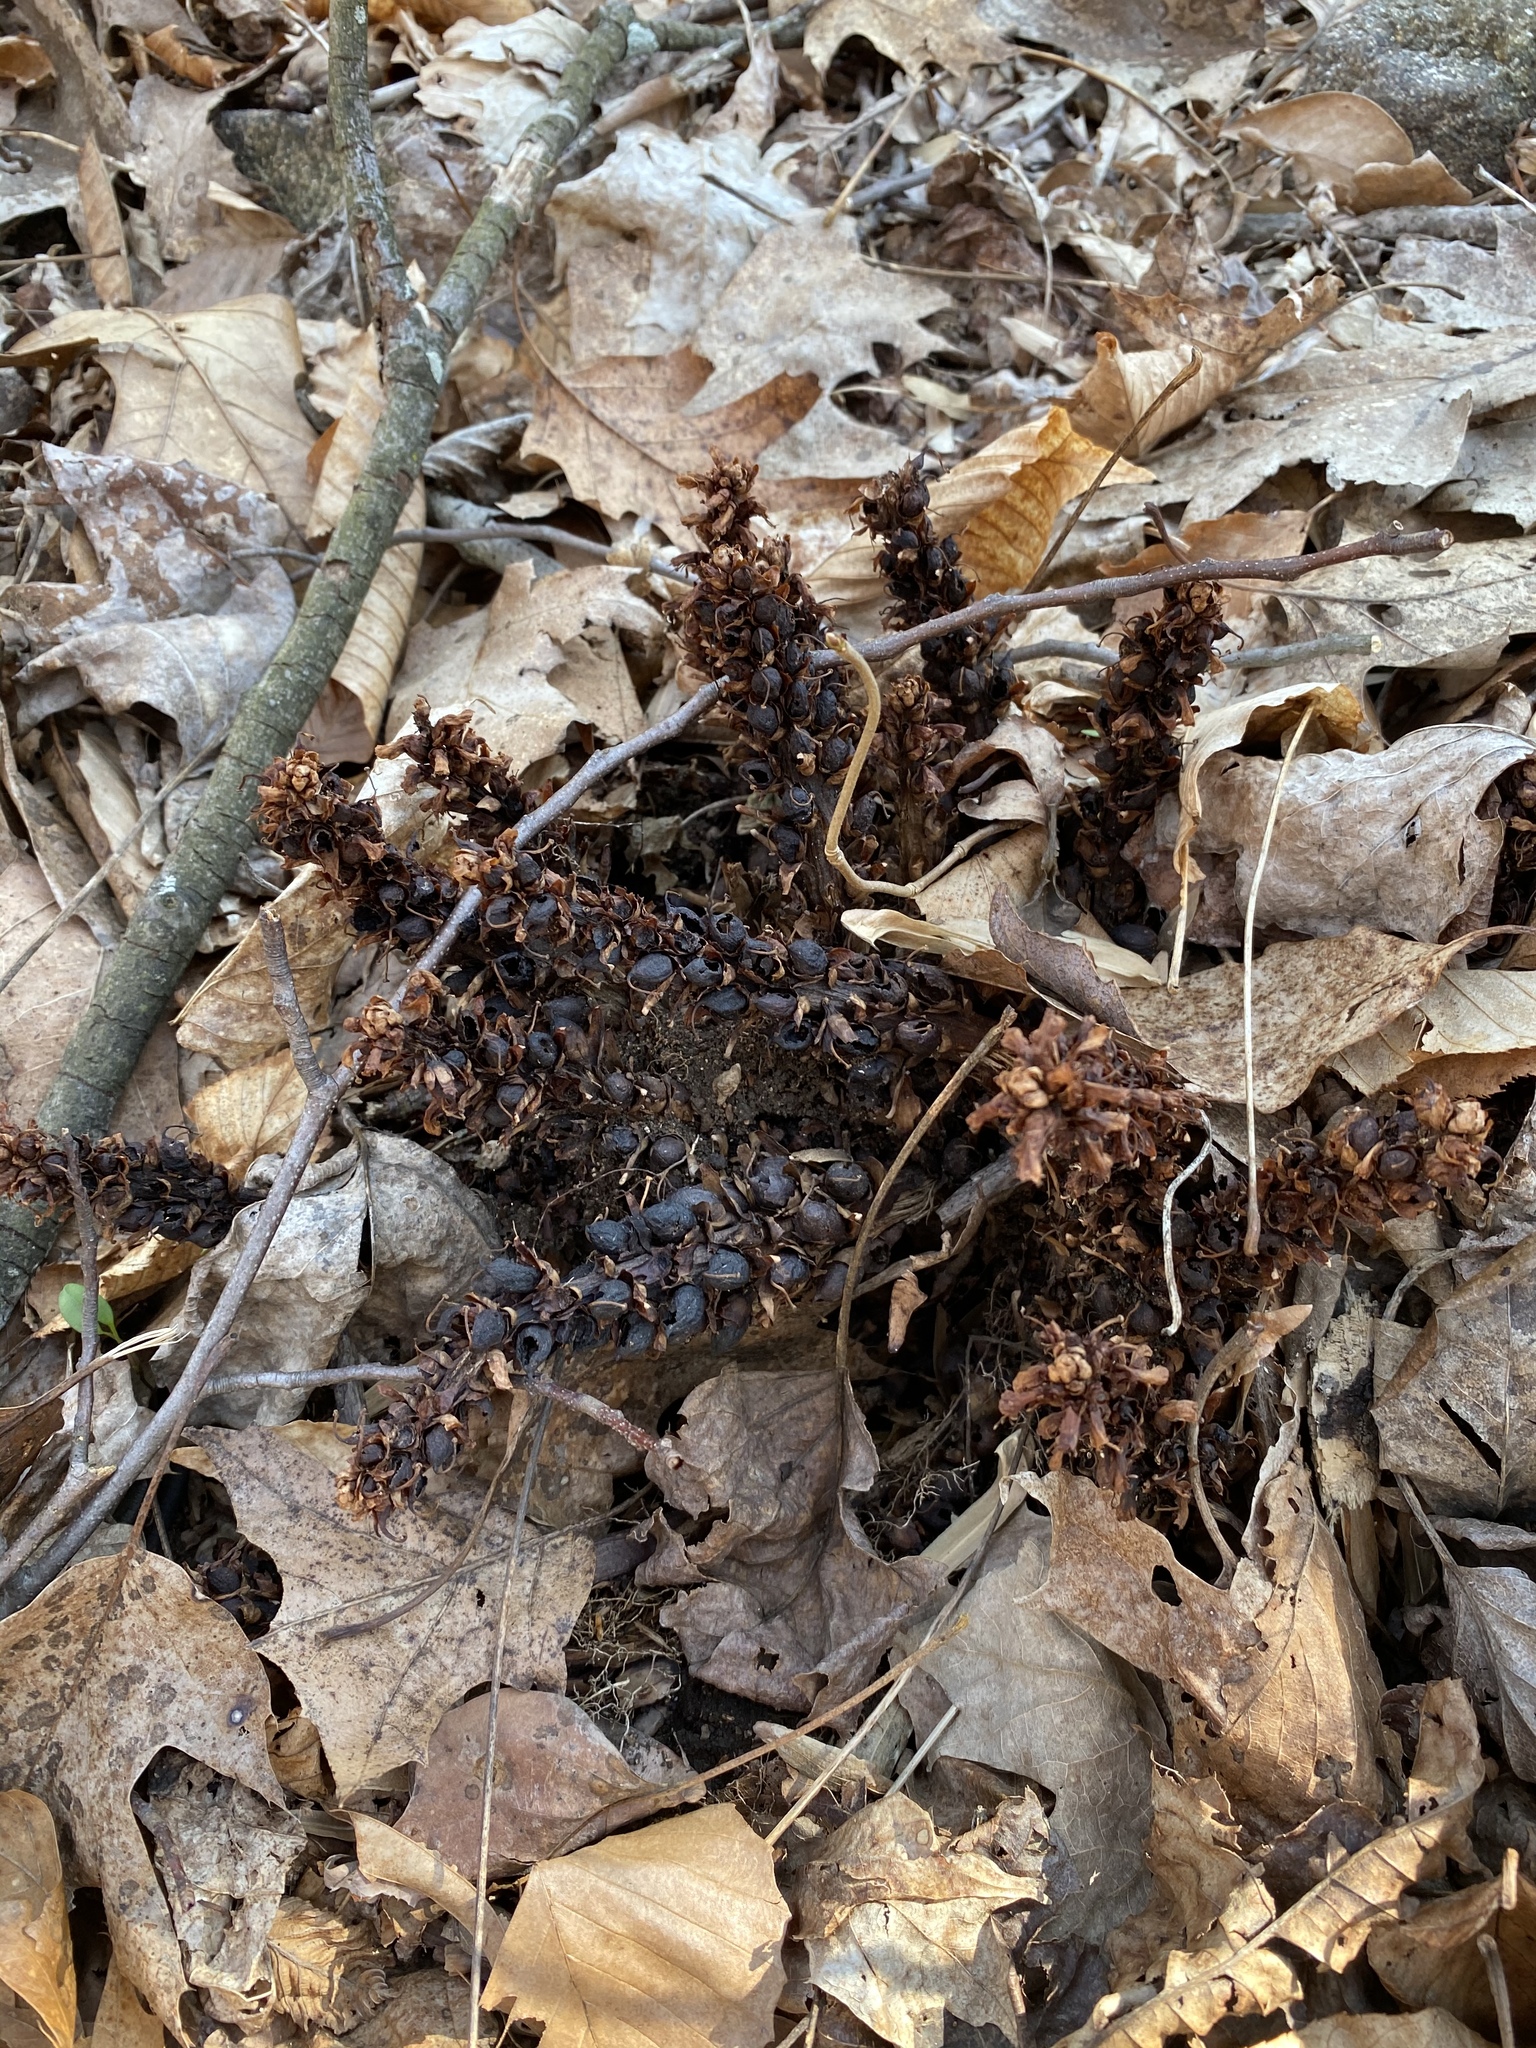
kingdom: Plantae
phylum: Tracheophyta
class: Magnoliopsida
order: Lamiales
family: Orobanchaceae
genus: Conopholis
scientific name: Conopholis americana
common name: American cancer-root
